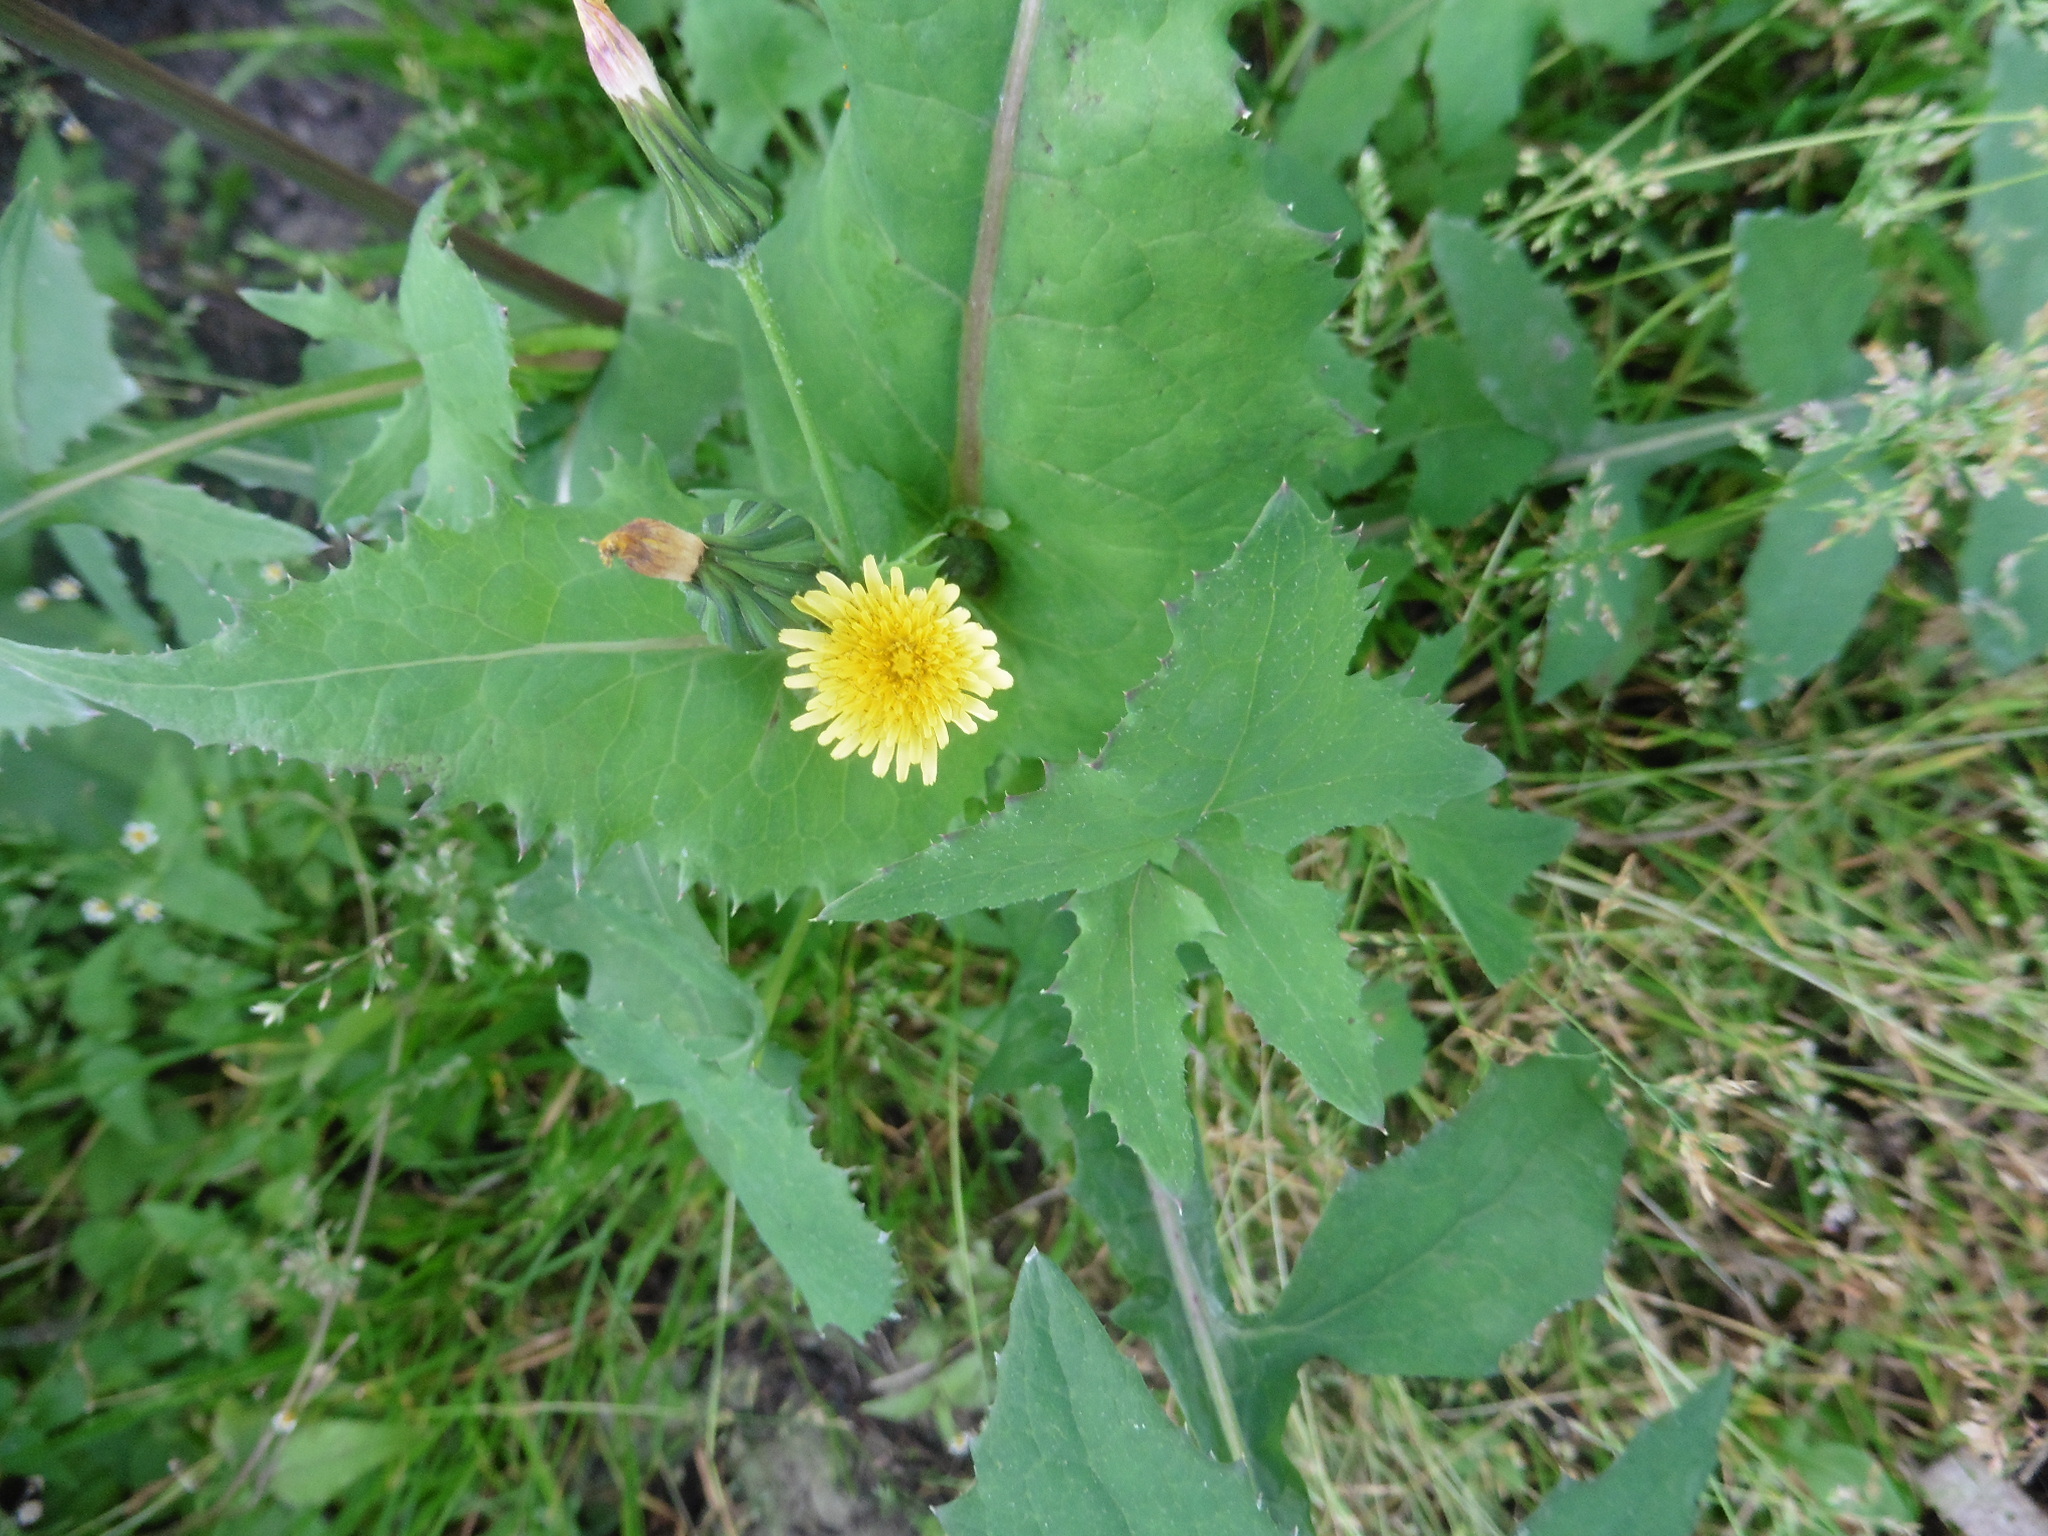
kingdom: Plantae
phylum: Tracheophyta
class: Magnoliopsida
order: Asterales
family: Asteraceae
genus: Sonchus
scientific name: Sonchus oleraceus
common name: Common sowthistle
